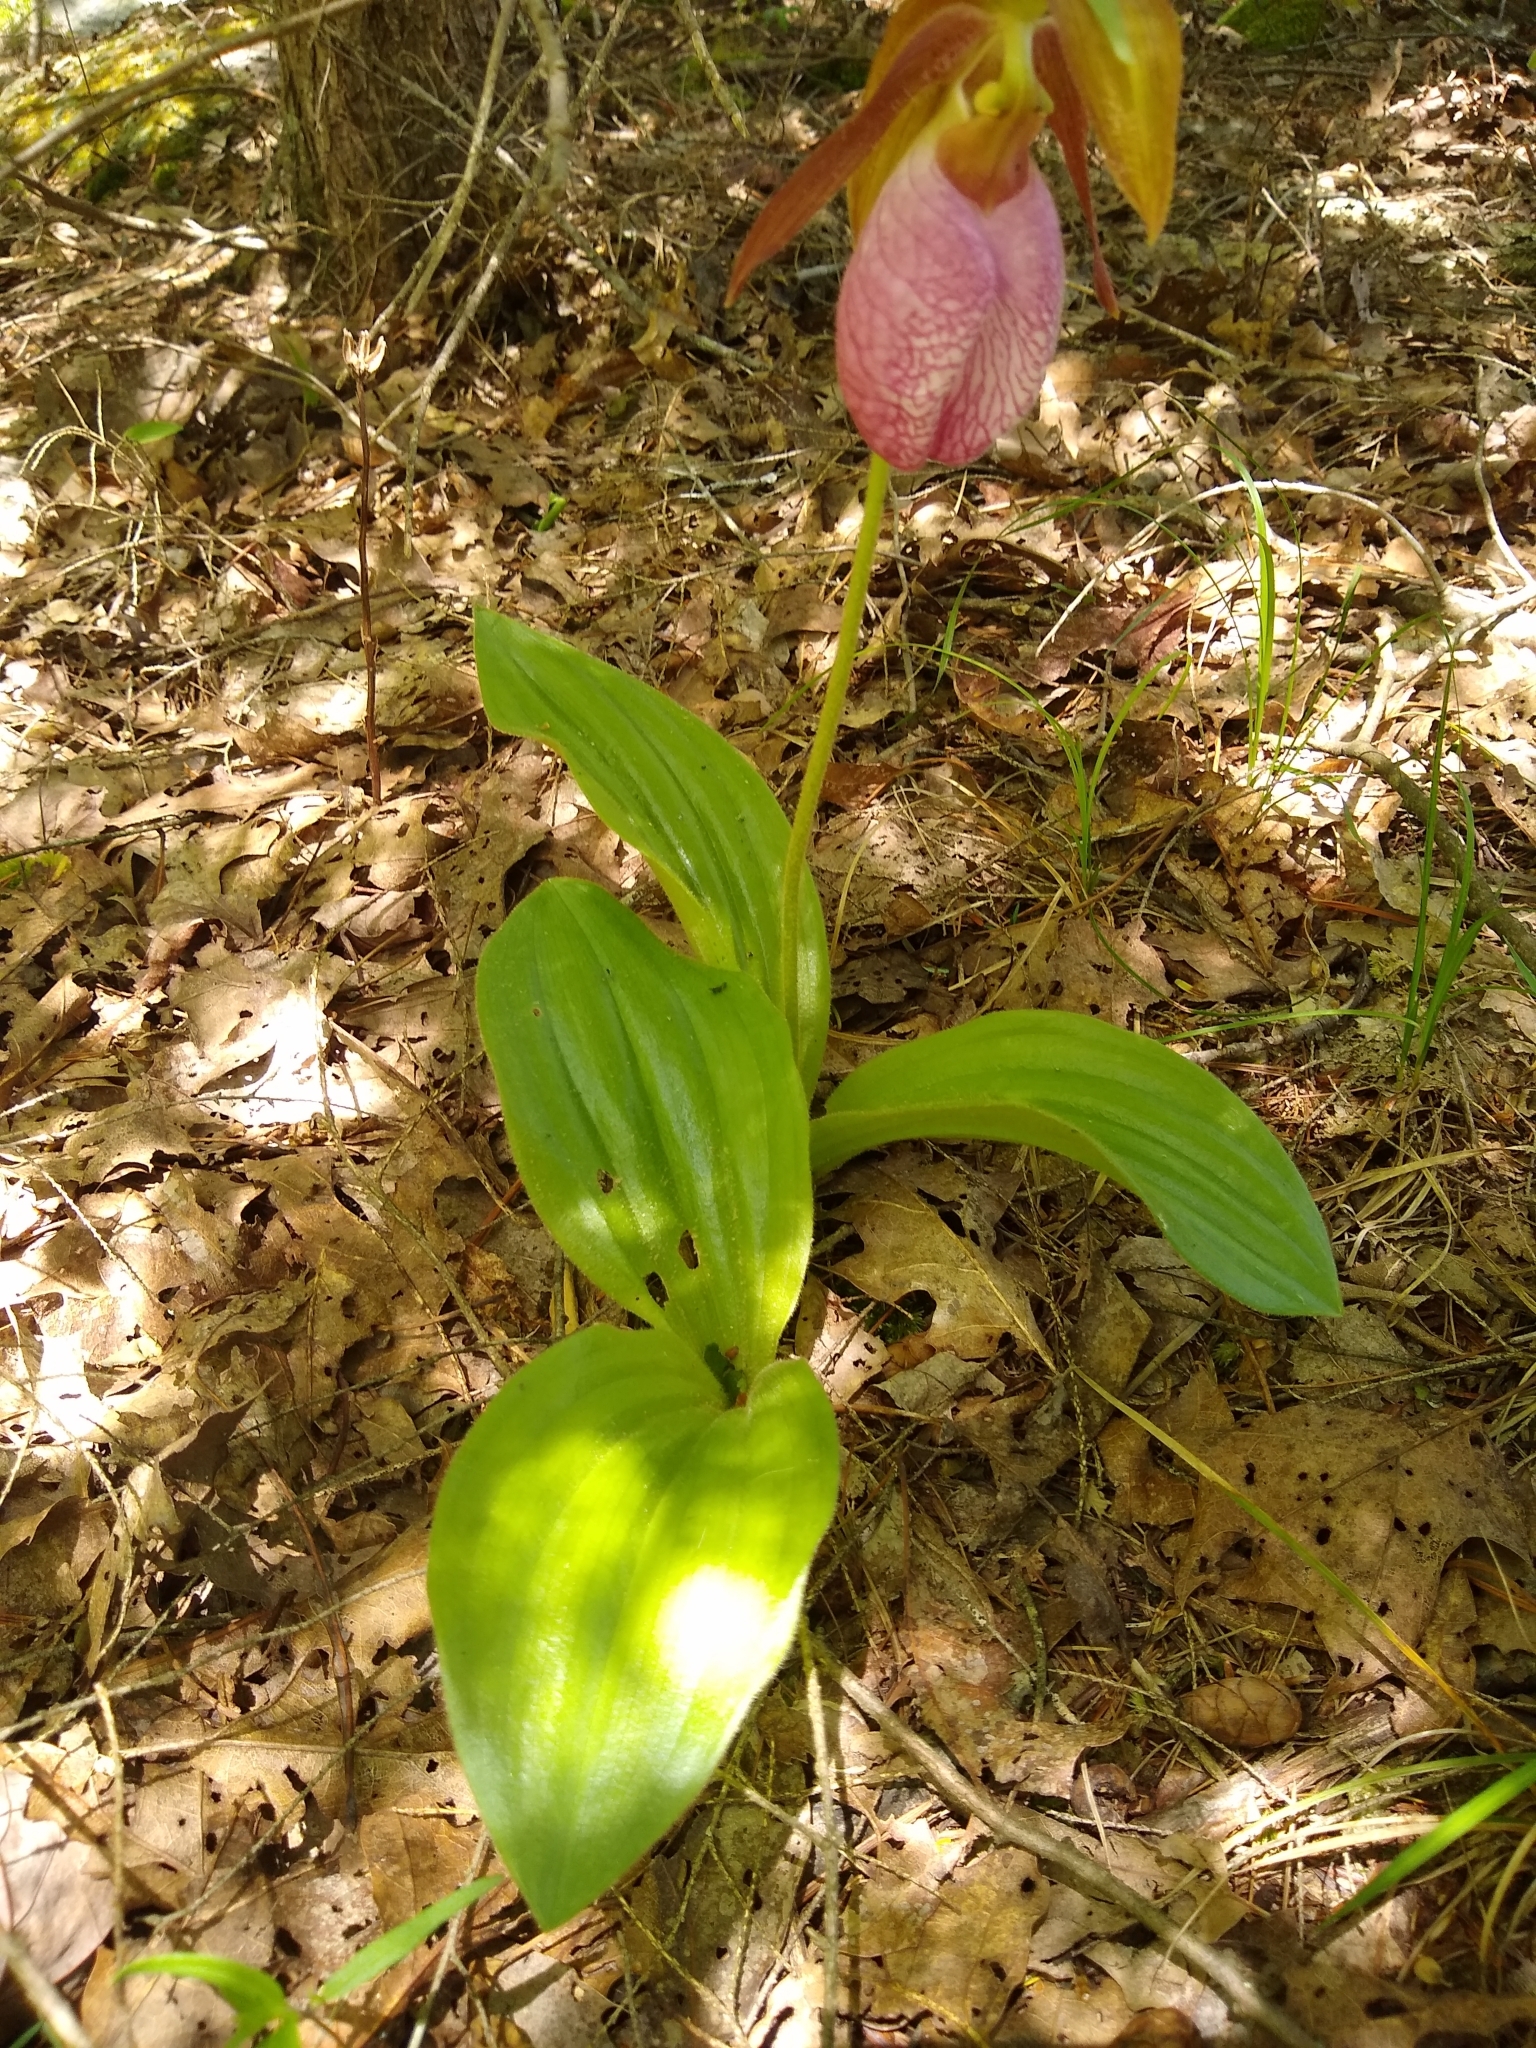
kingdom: Plantae
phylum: Tracheophyta
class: Liliopsida
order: Asparagales
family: Orchidaceae
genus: Cypripedium
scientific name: Cypripedium acaule
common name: Pink lady's-slipper
